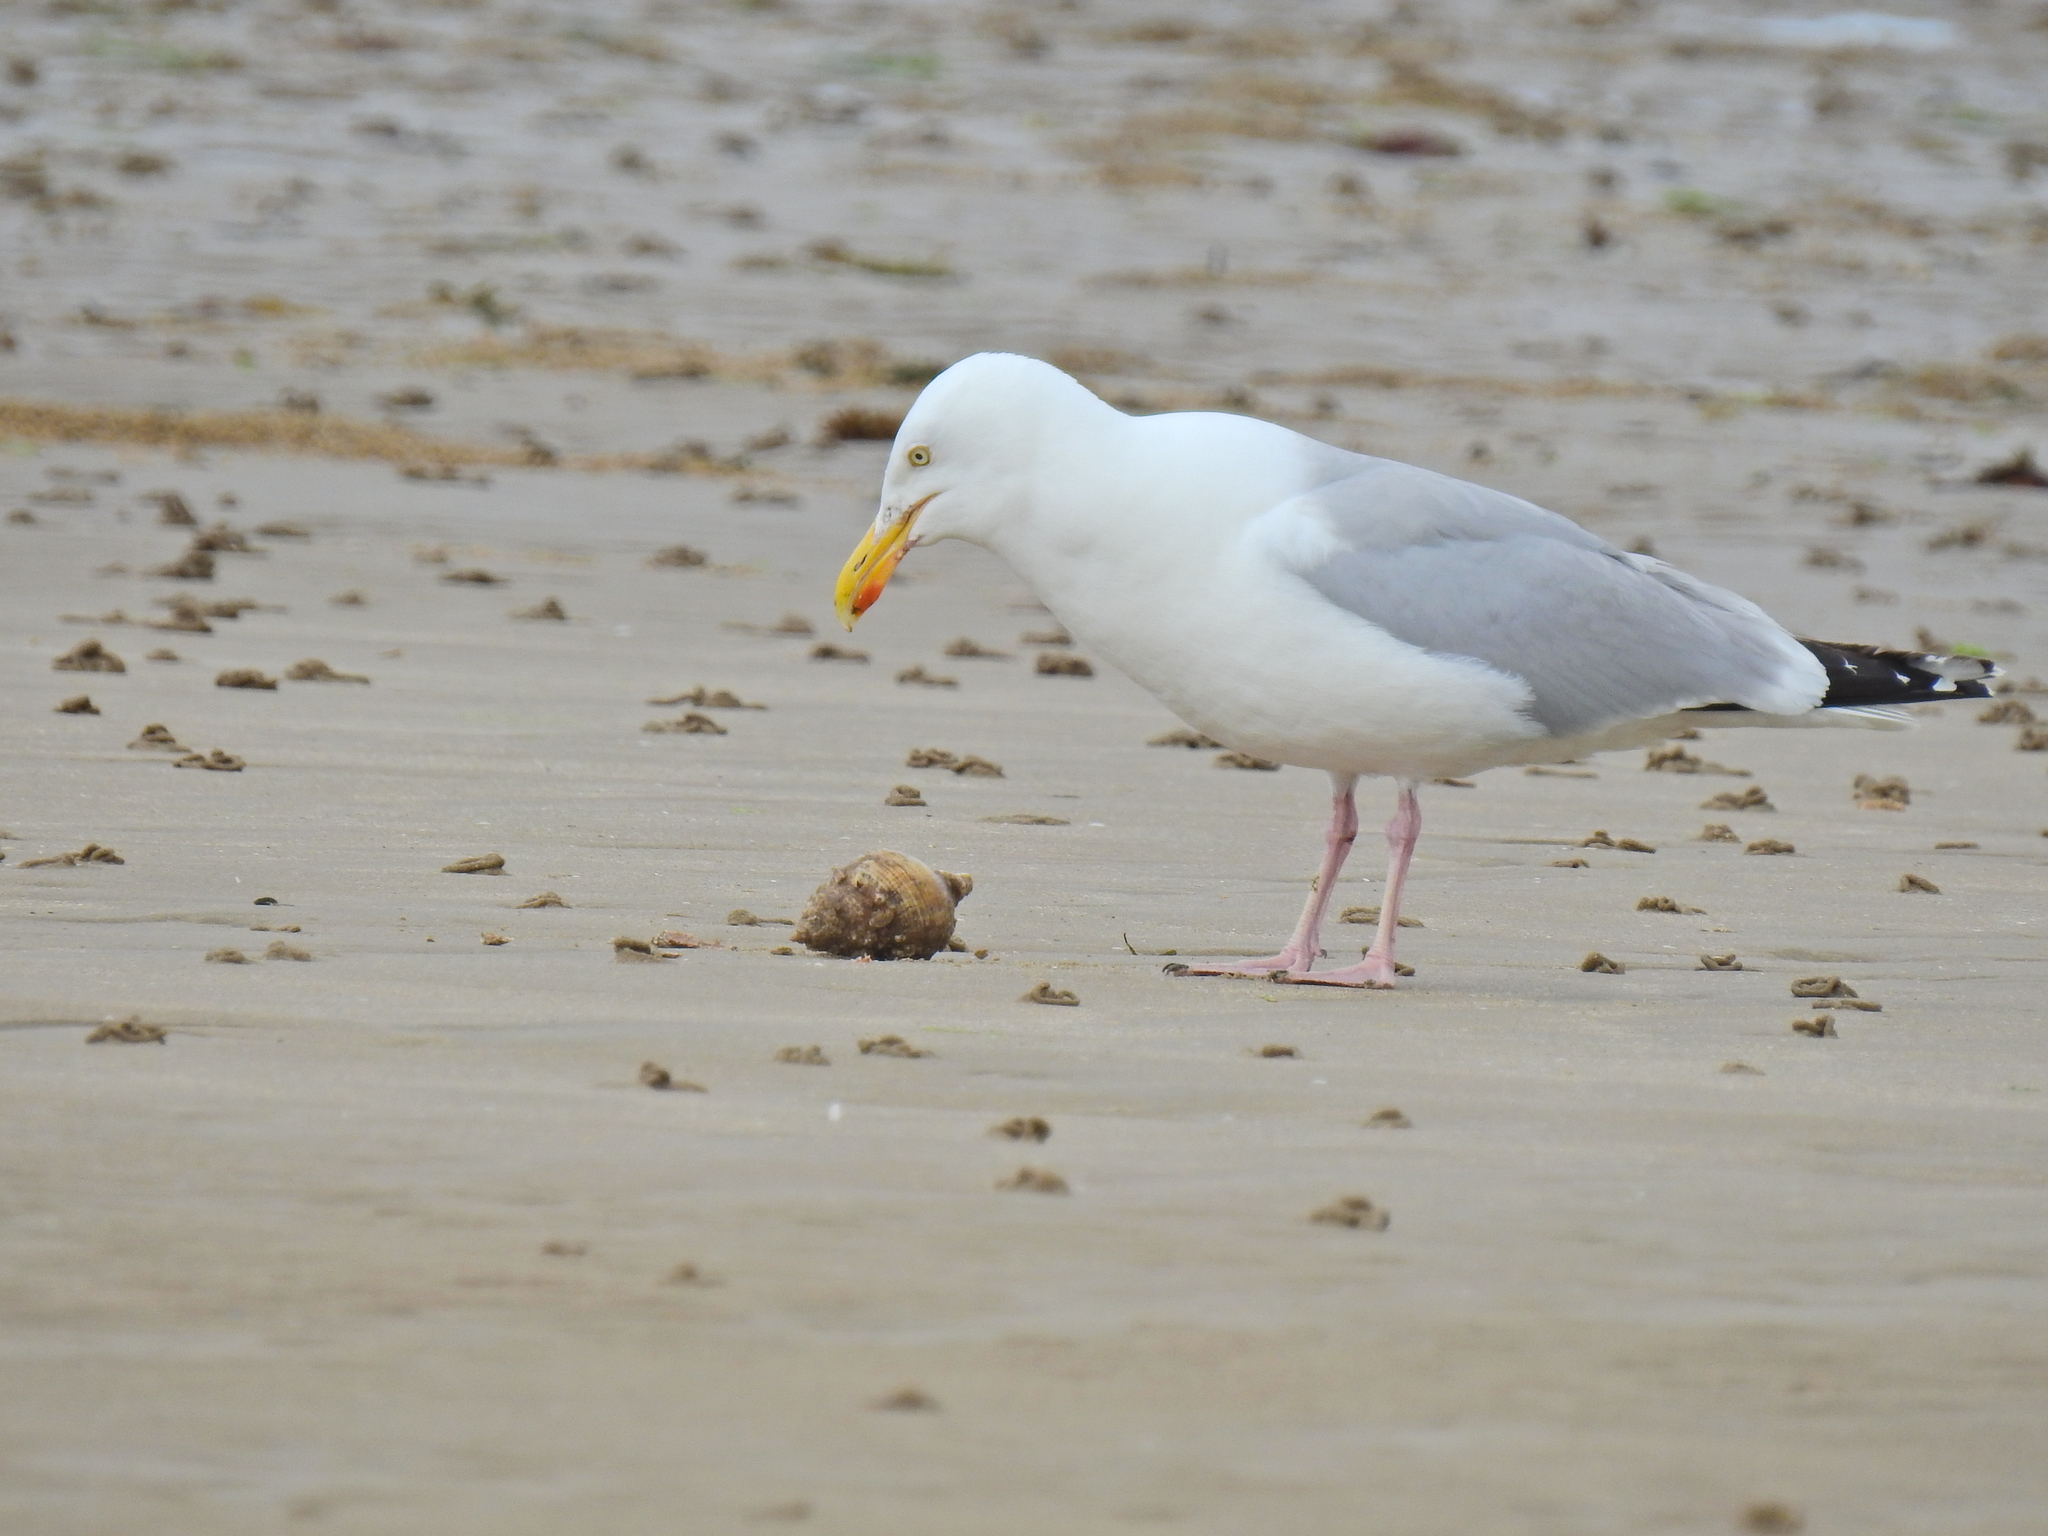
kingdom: Animalia
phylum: Mollusca
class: Gastropoda
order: Neogastropoda
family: Buccinidae
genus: Buccinum
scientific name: Buccinum undatum
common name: Common whelk
